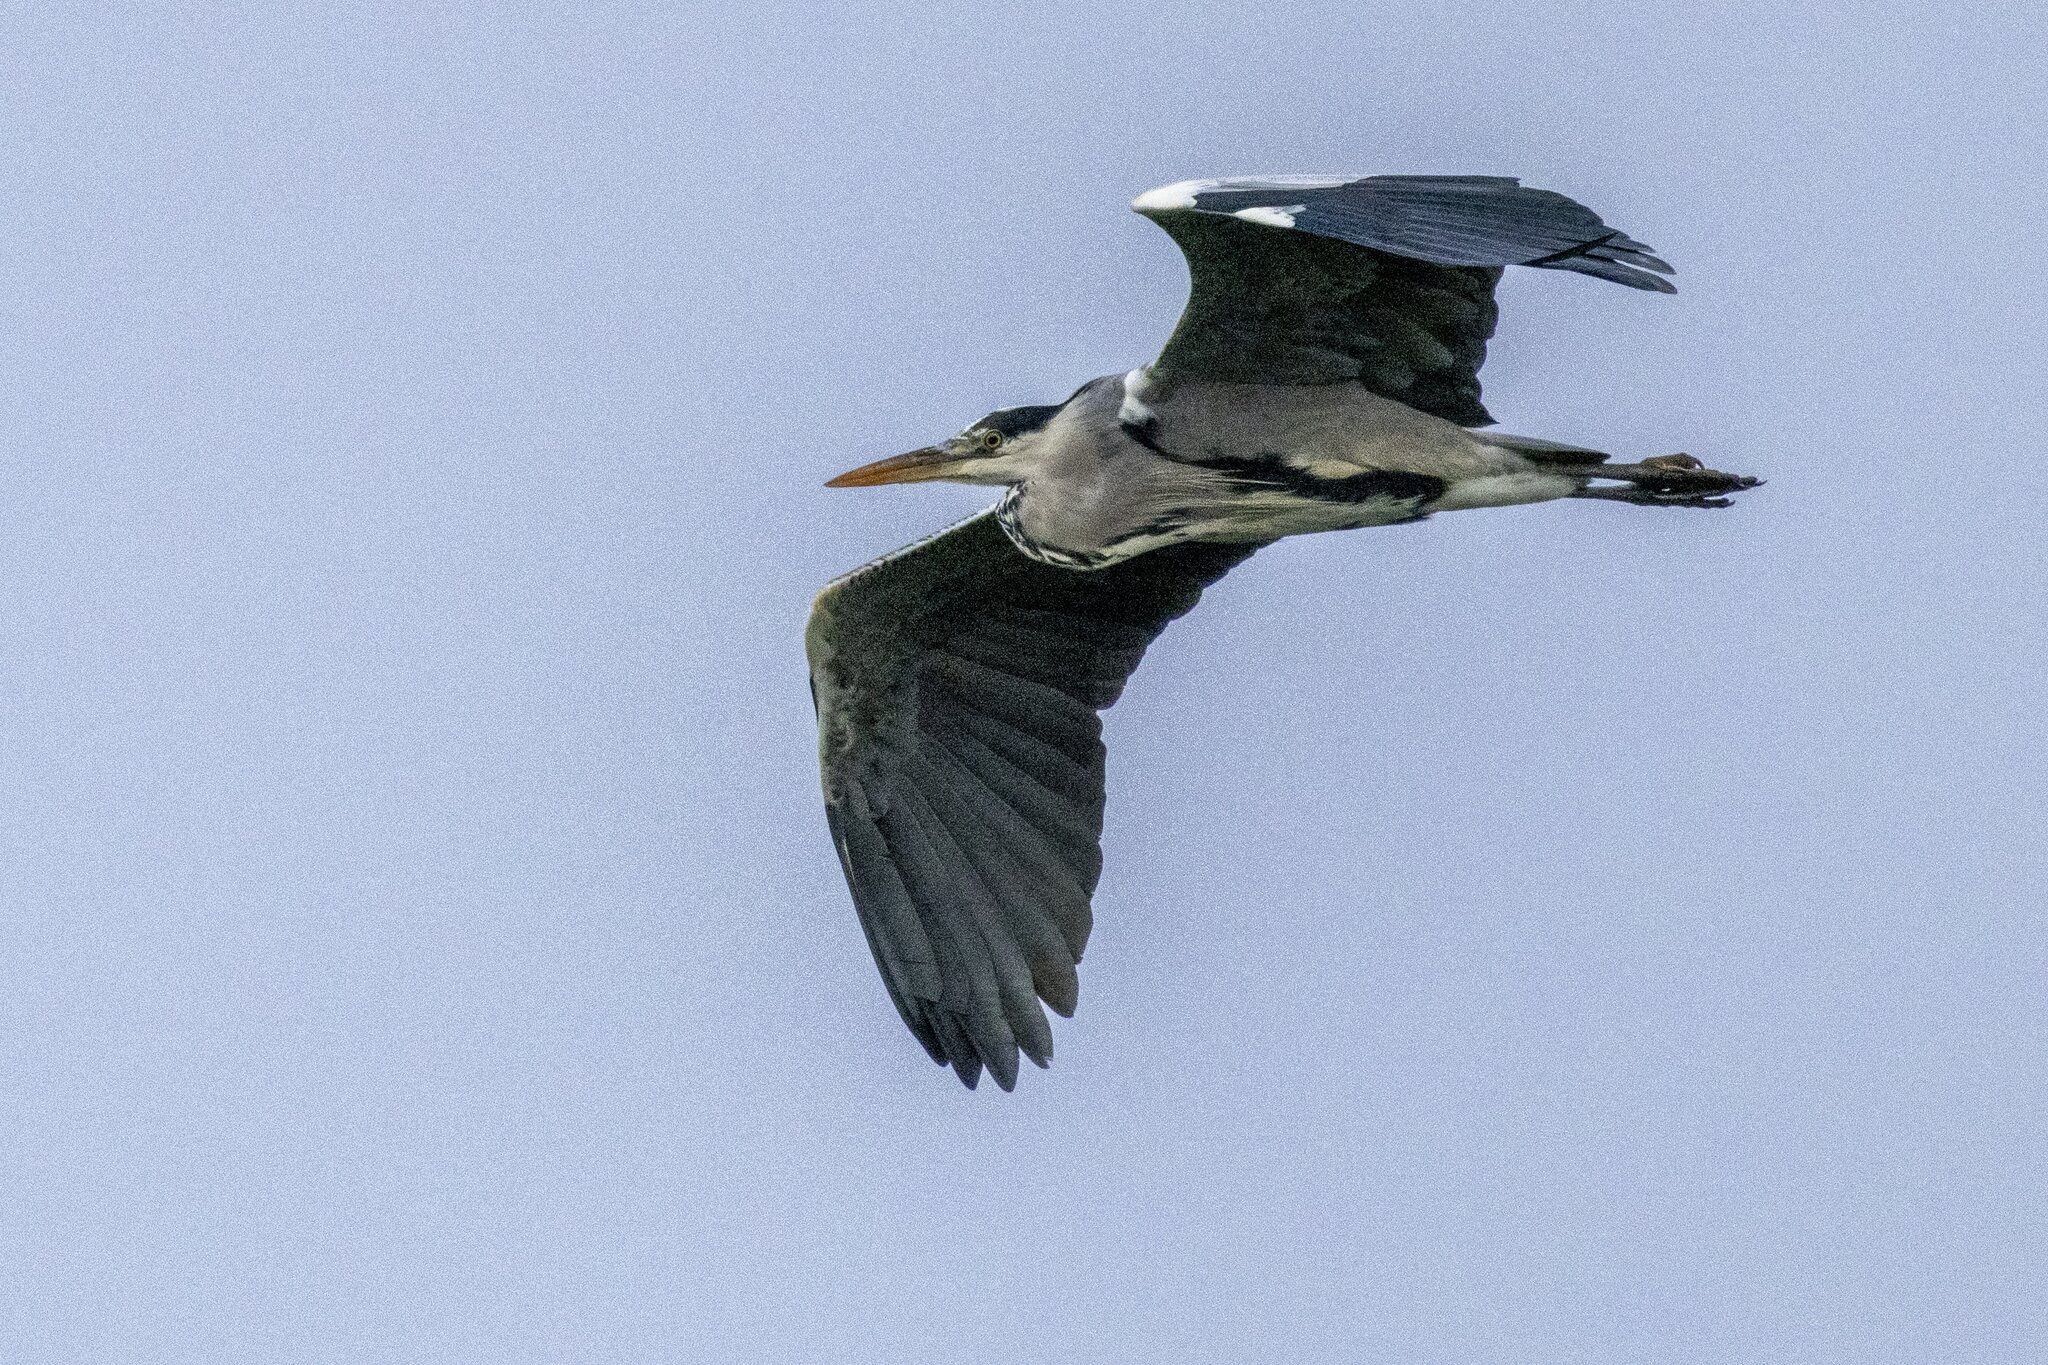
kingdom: Animalia
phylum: Chordata
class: Aves
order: Pelecaniformes
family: Ardeidae
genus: Ardea
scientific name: Ardea cinerea
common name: Grey heron
